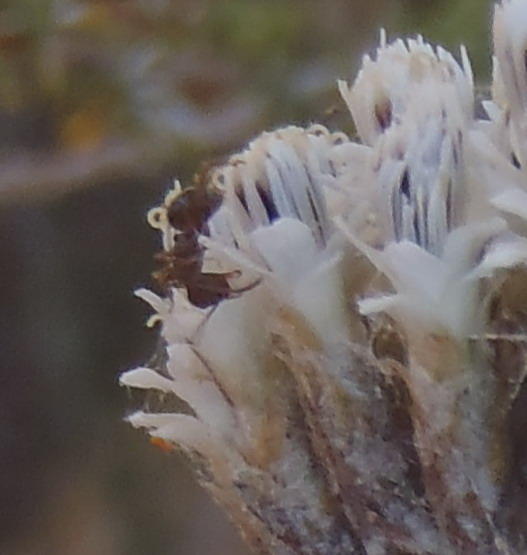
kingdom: Animalia
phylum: Arthropoda
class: Insecta
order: Hymenoptera
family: Formicidae
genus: Anoplolepis
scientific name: Anoplolepis steingroeveri
